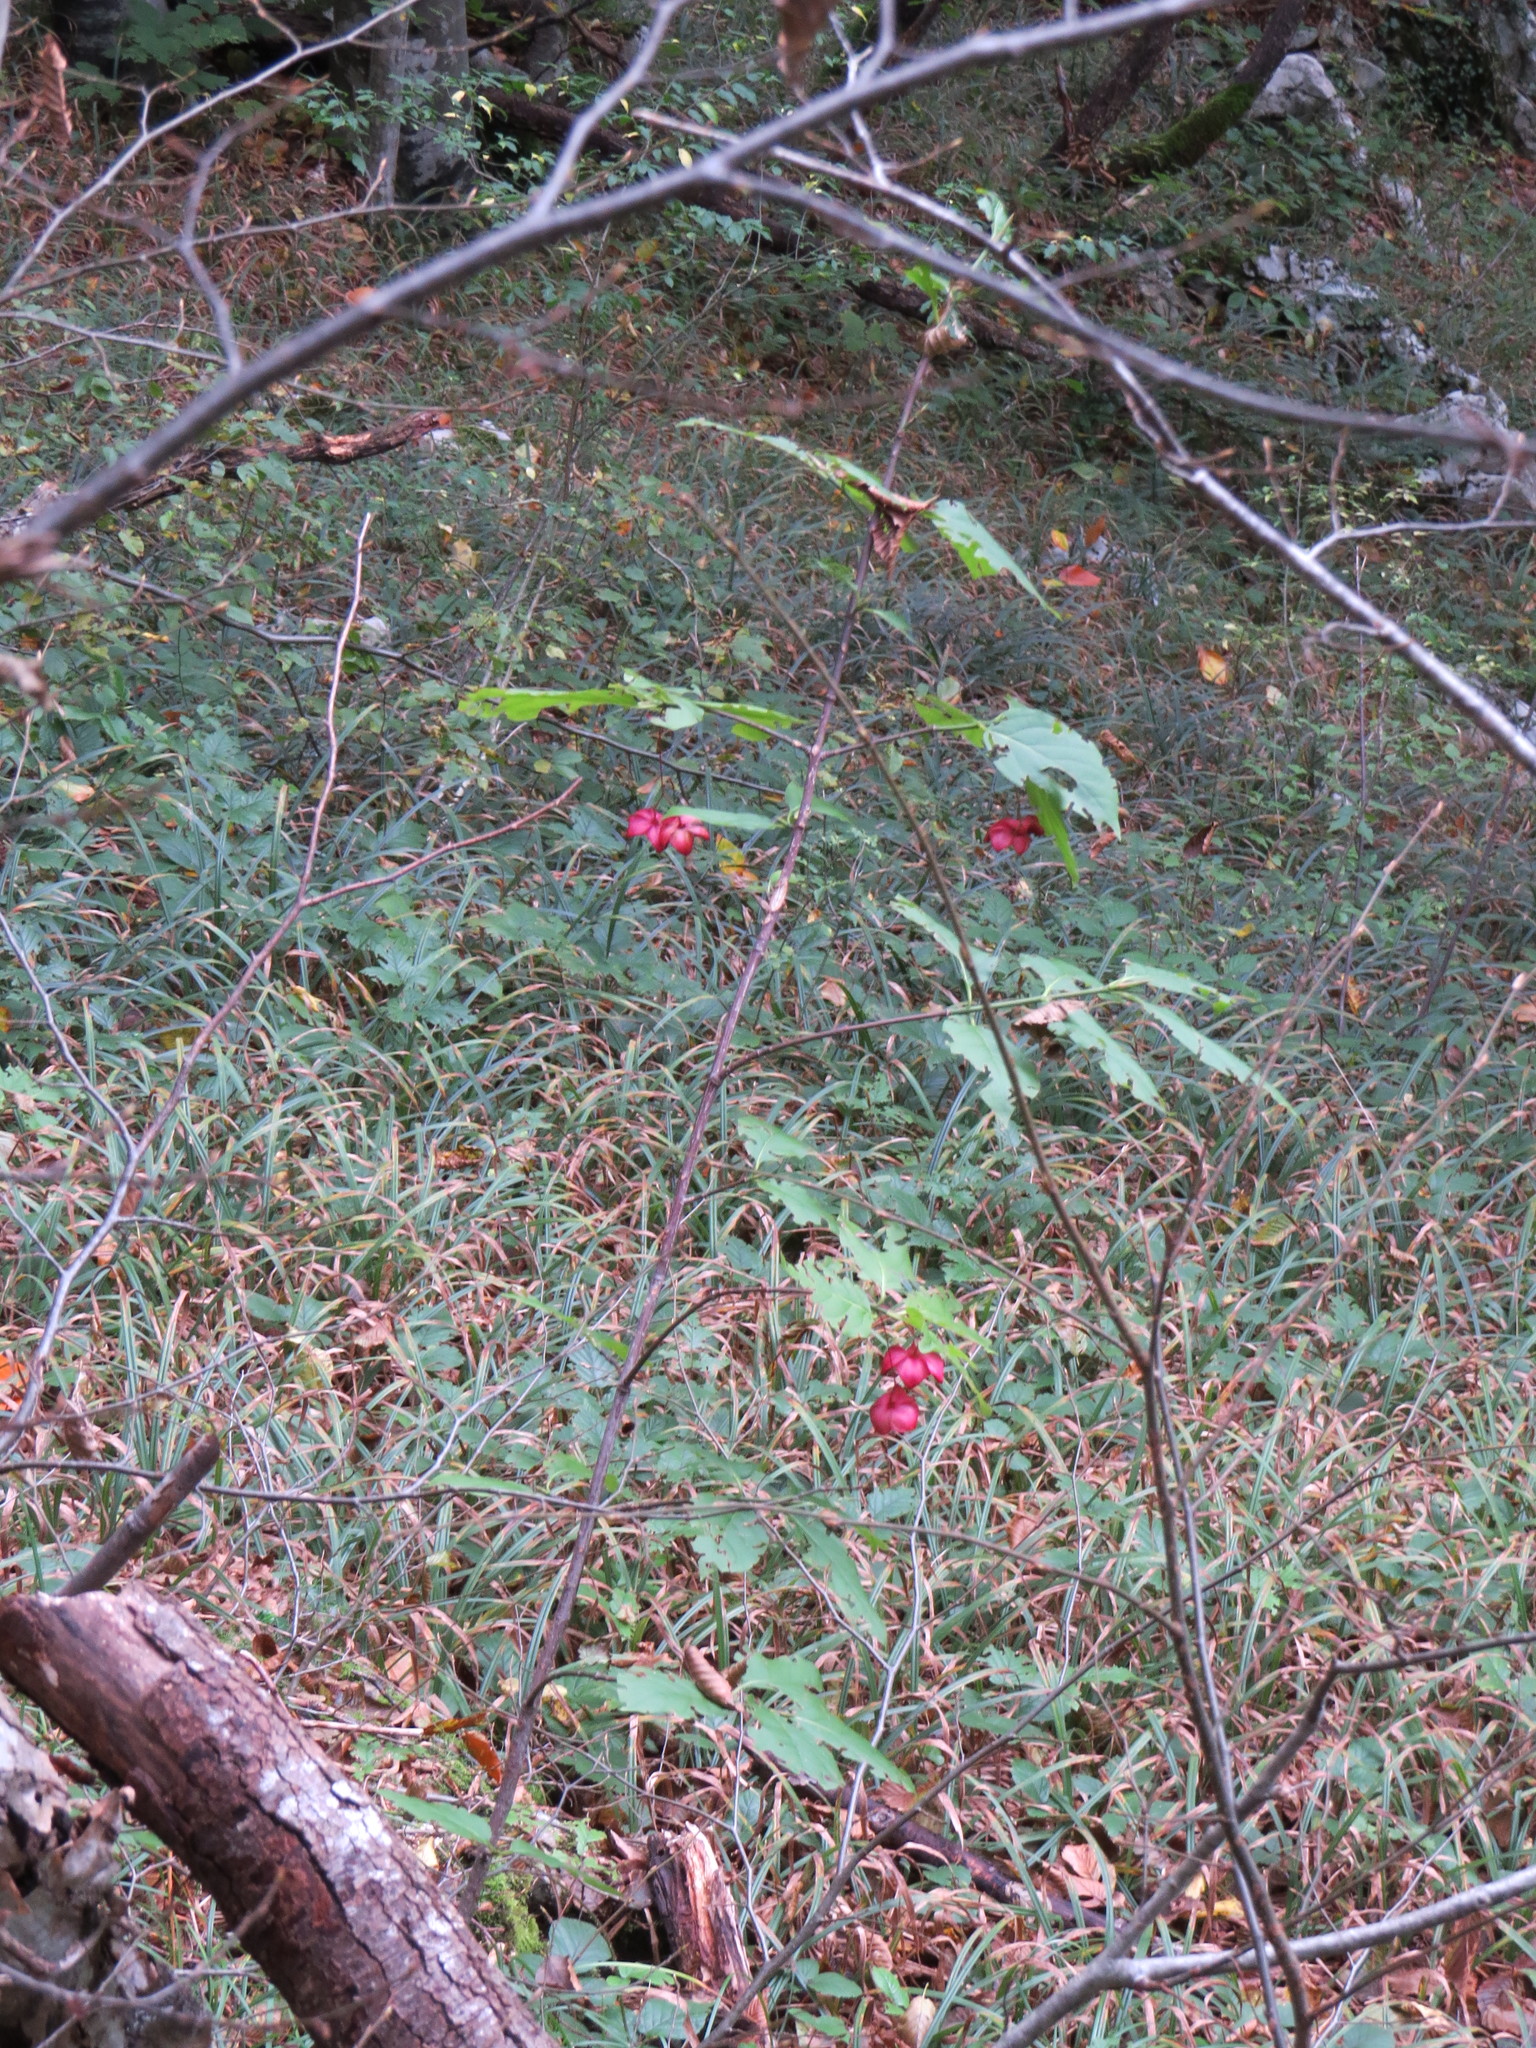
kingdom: Plantae
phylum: Tracheophyta
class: Magnoliopsida
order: Celastrales
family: Celastraceae
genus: Euonymus
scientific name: Euonymus latifolius
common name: Large-leaved spindle
